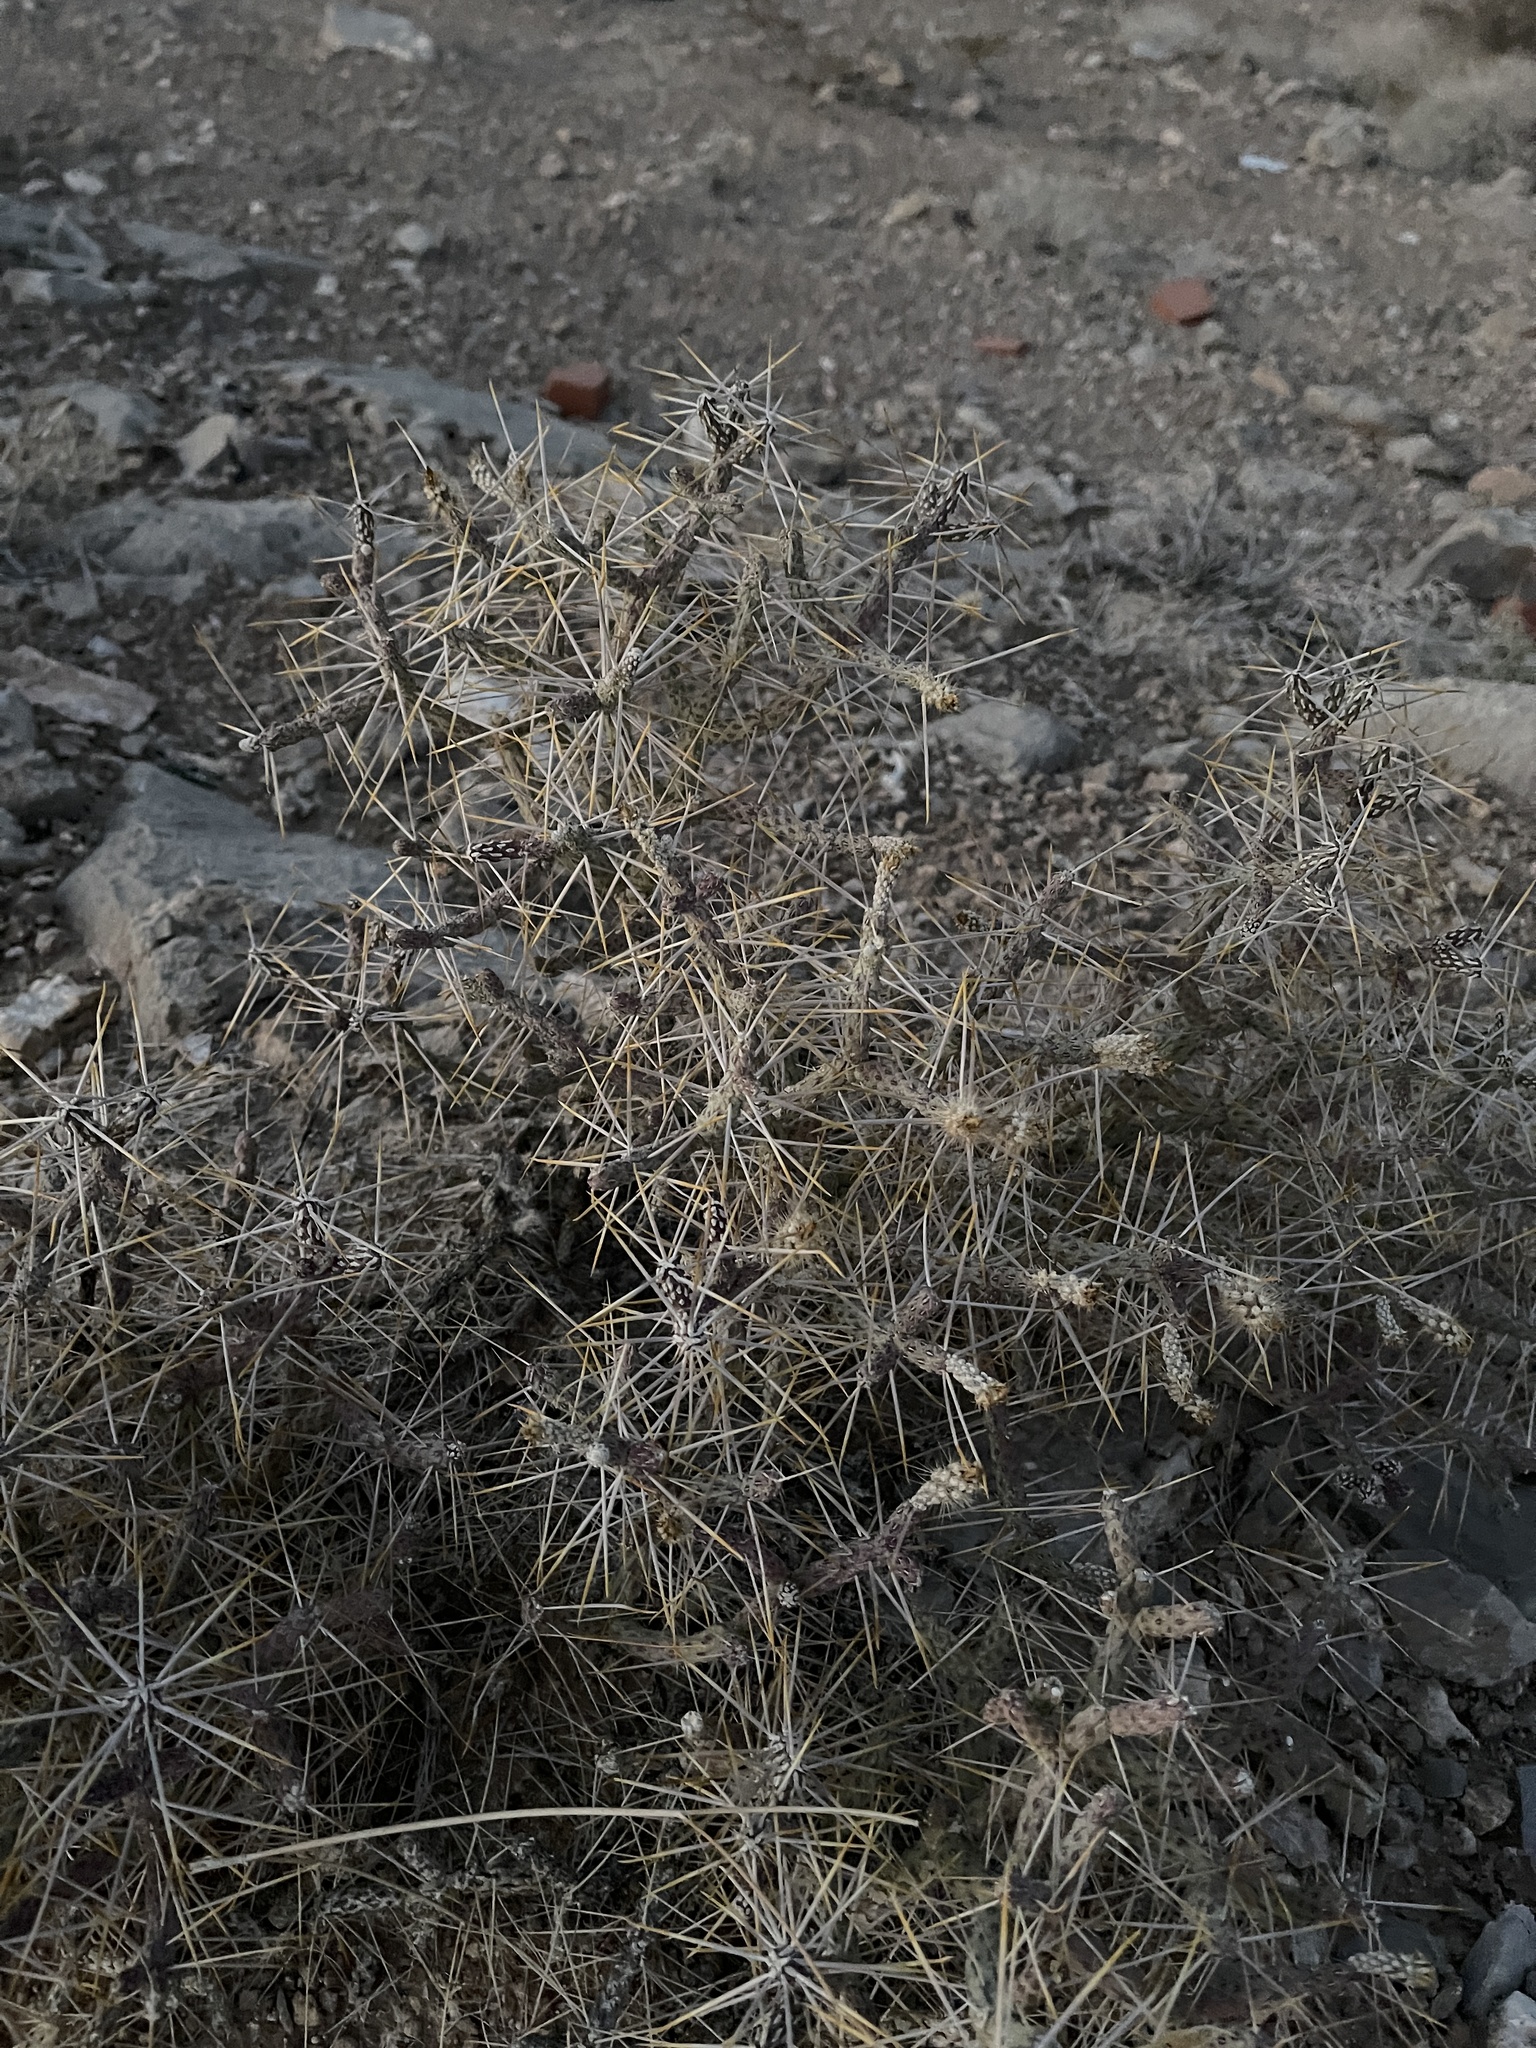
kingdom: Plantae
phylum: Tracheophyta
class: Magnoliopsida
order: Caryophyllales
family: Cactaceae
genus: Cylindropuntia
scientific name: Cylindropuntia ramosissima
